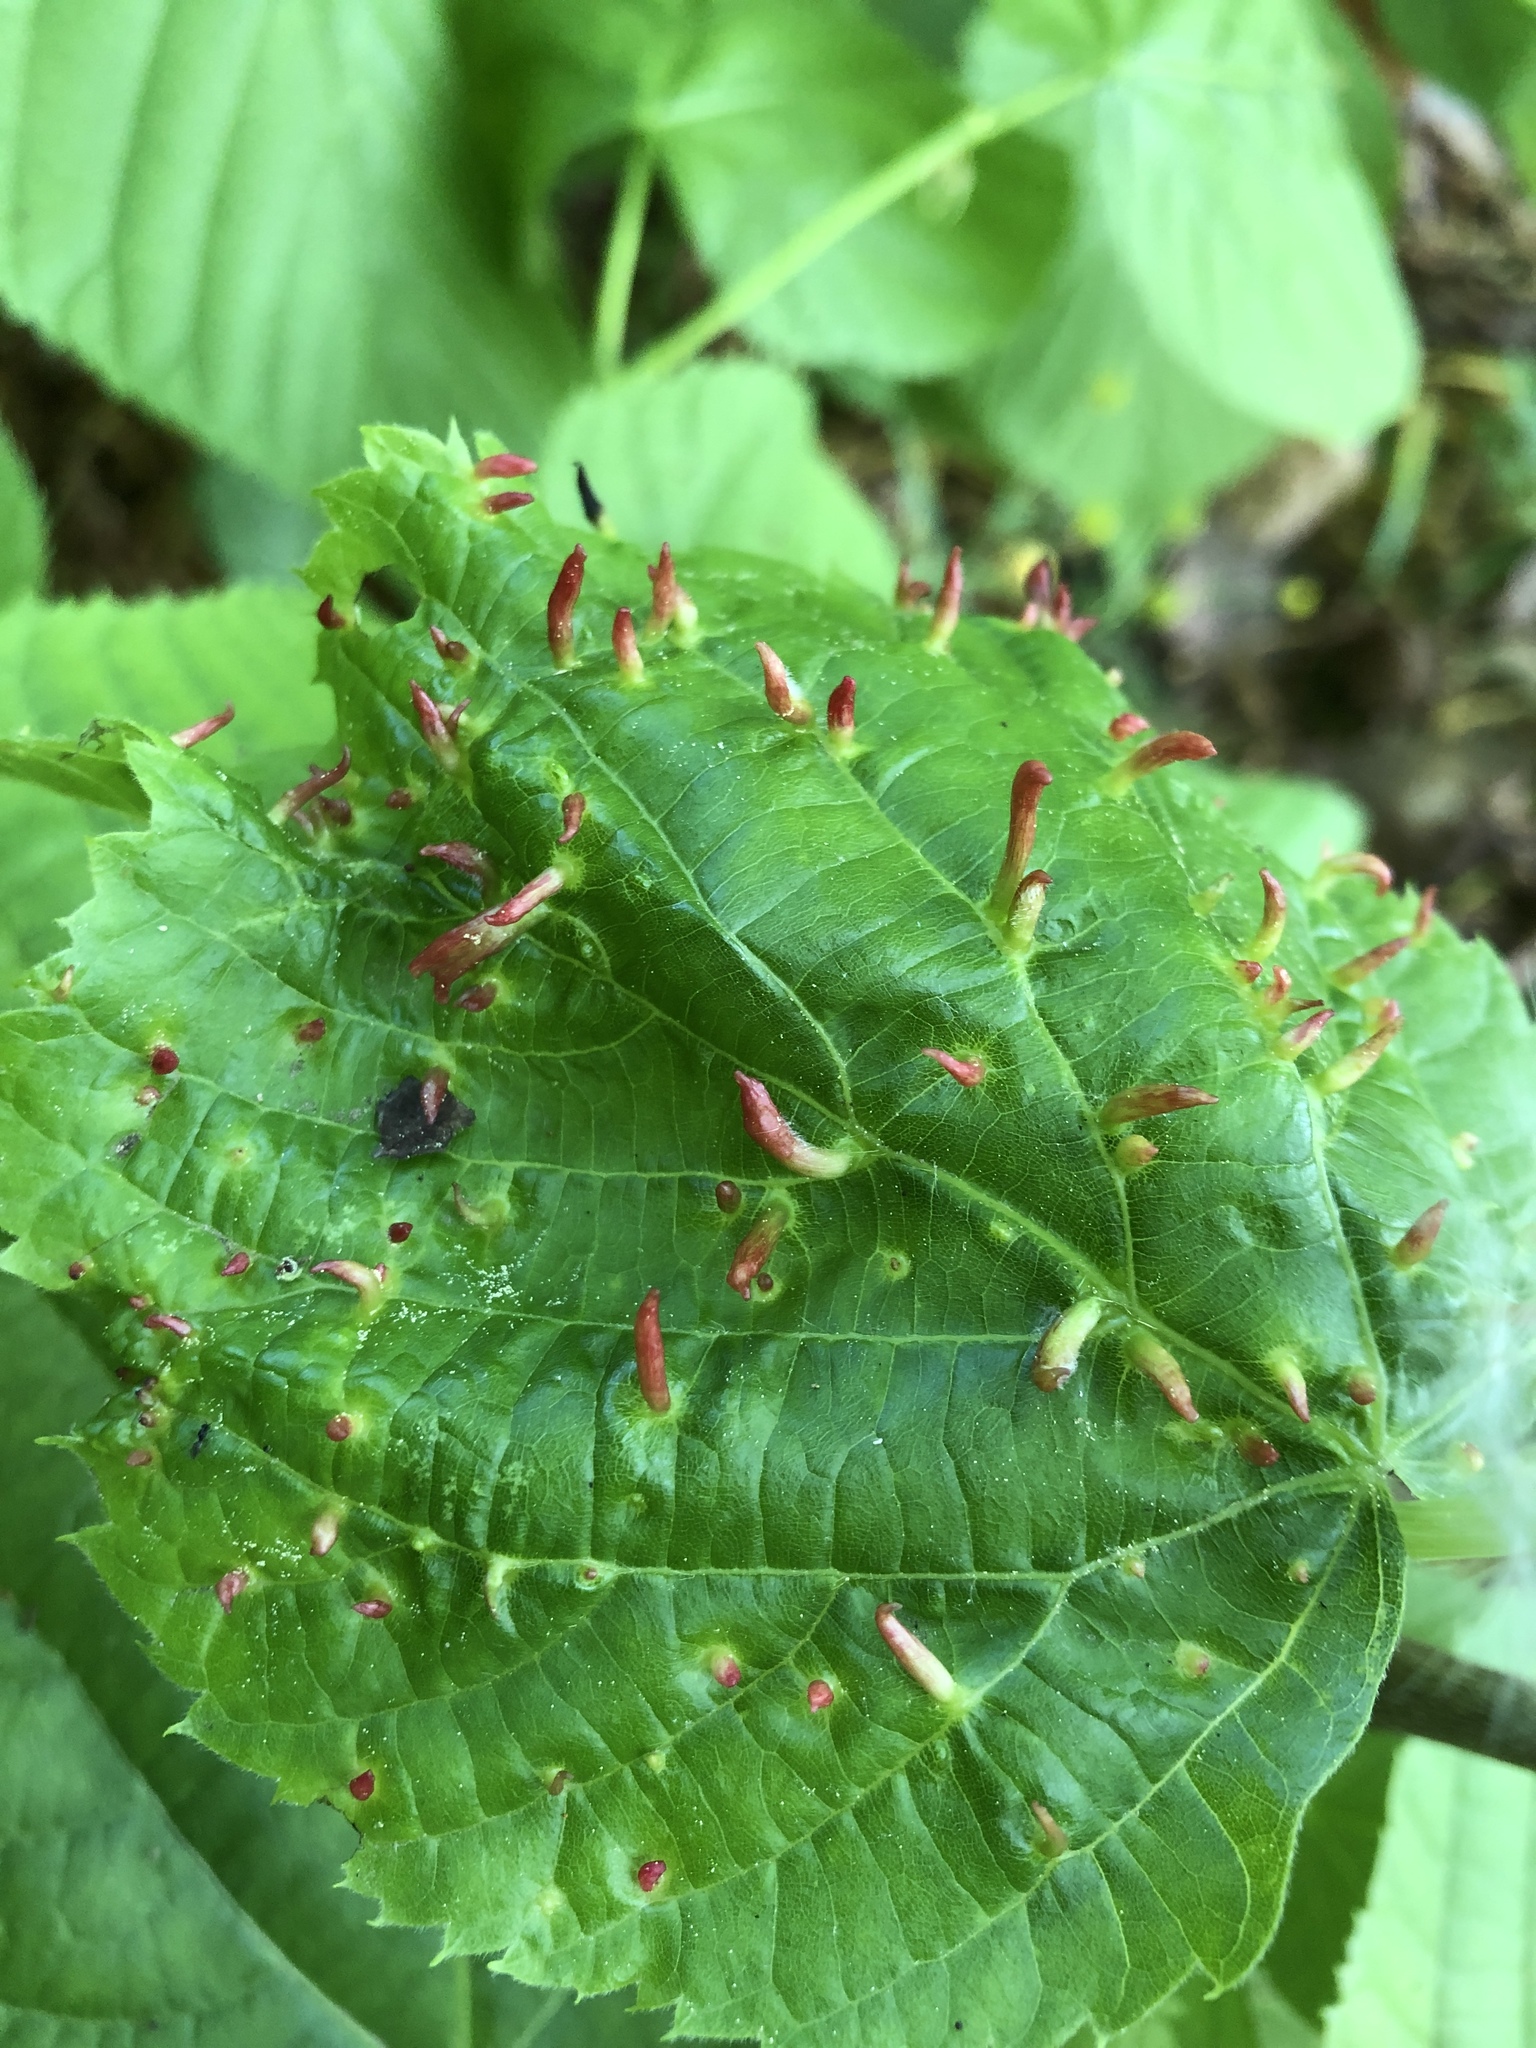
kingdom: Animalia
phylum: Arthropoda
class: Arachnida
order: Trombidiformes
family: Eriophyidae
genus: Eriophyes
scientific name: Eriophyes tiliae
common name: Red nail gall mite
